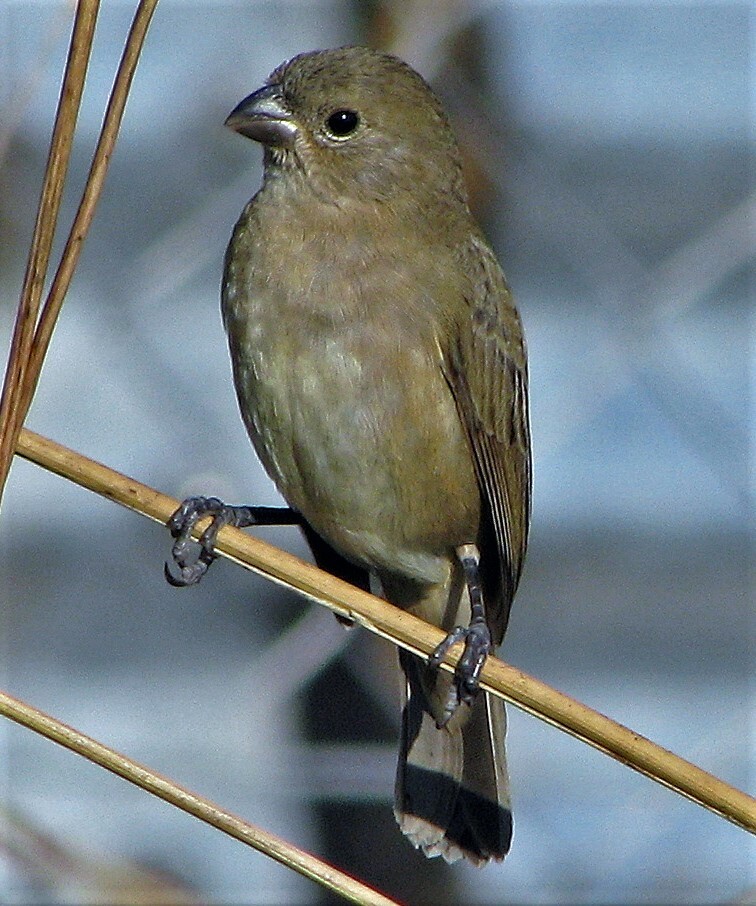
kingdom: Animalia
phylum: Chordata
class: Aves
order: Passeriformes
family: Thraupidae
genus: Sporophila
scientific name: Sporophila caerulescens
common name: Double-collared seedeater
